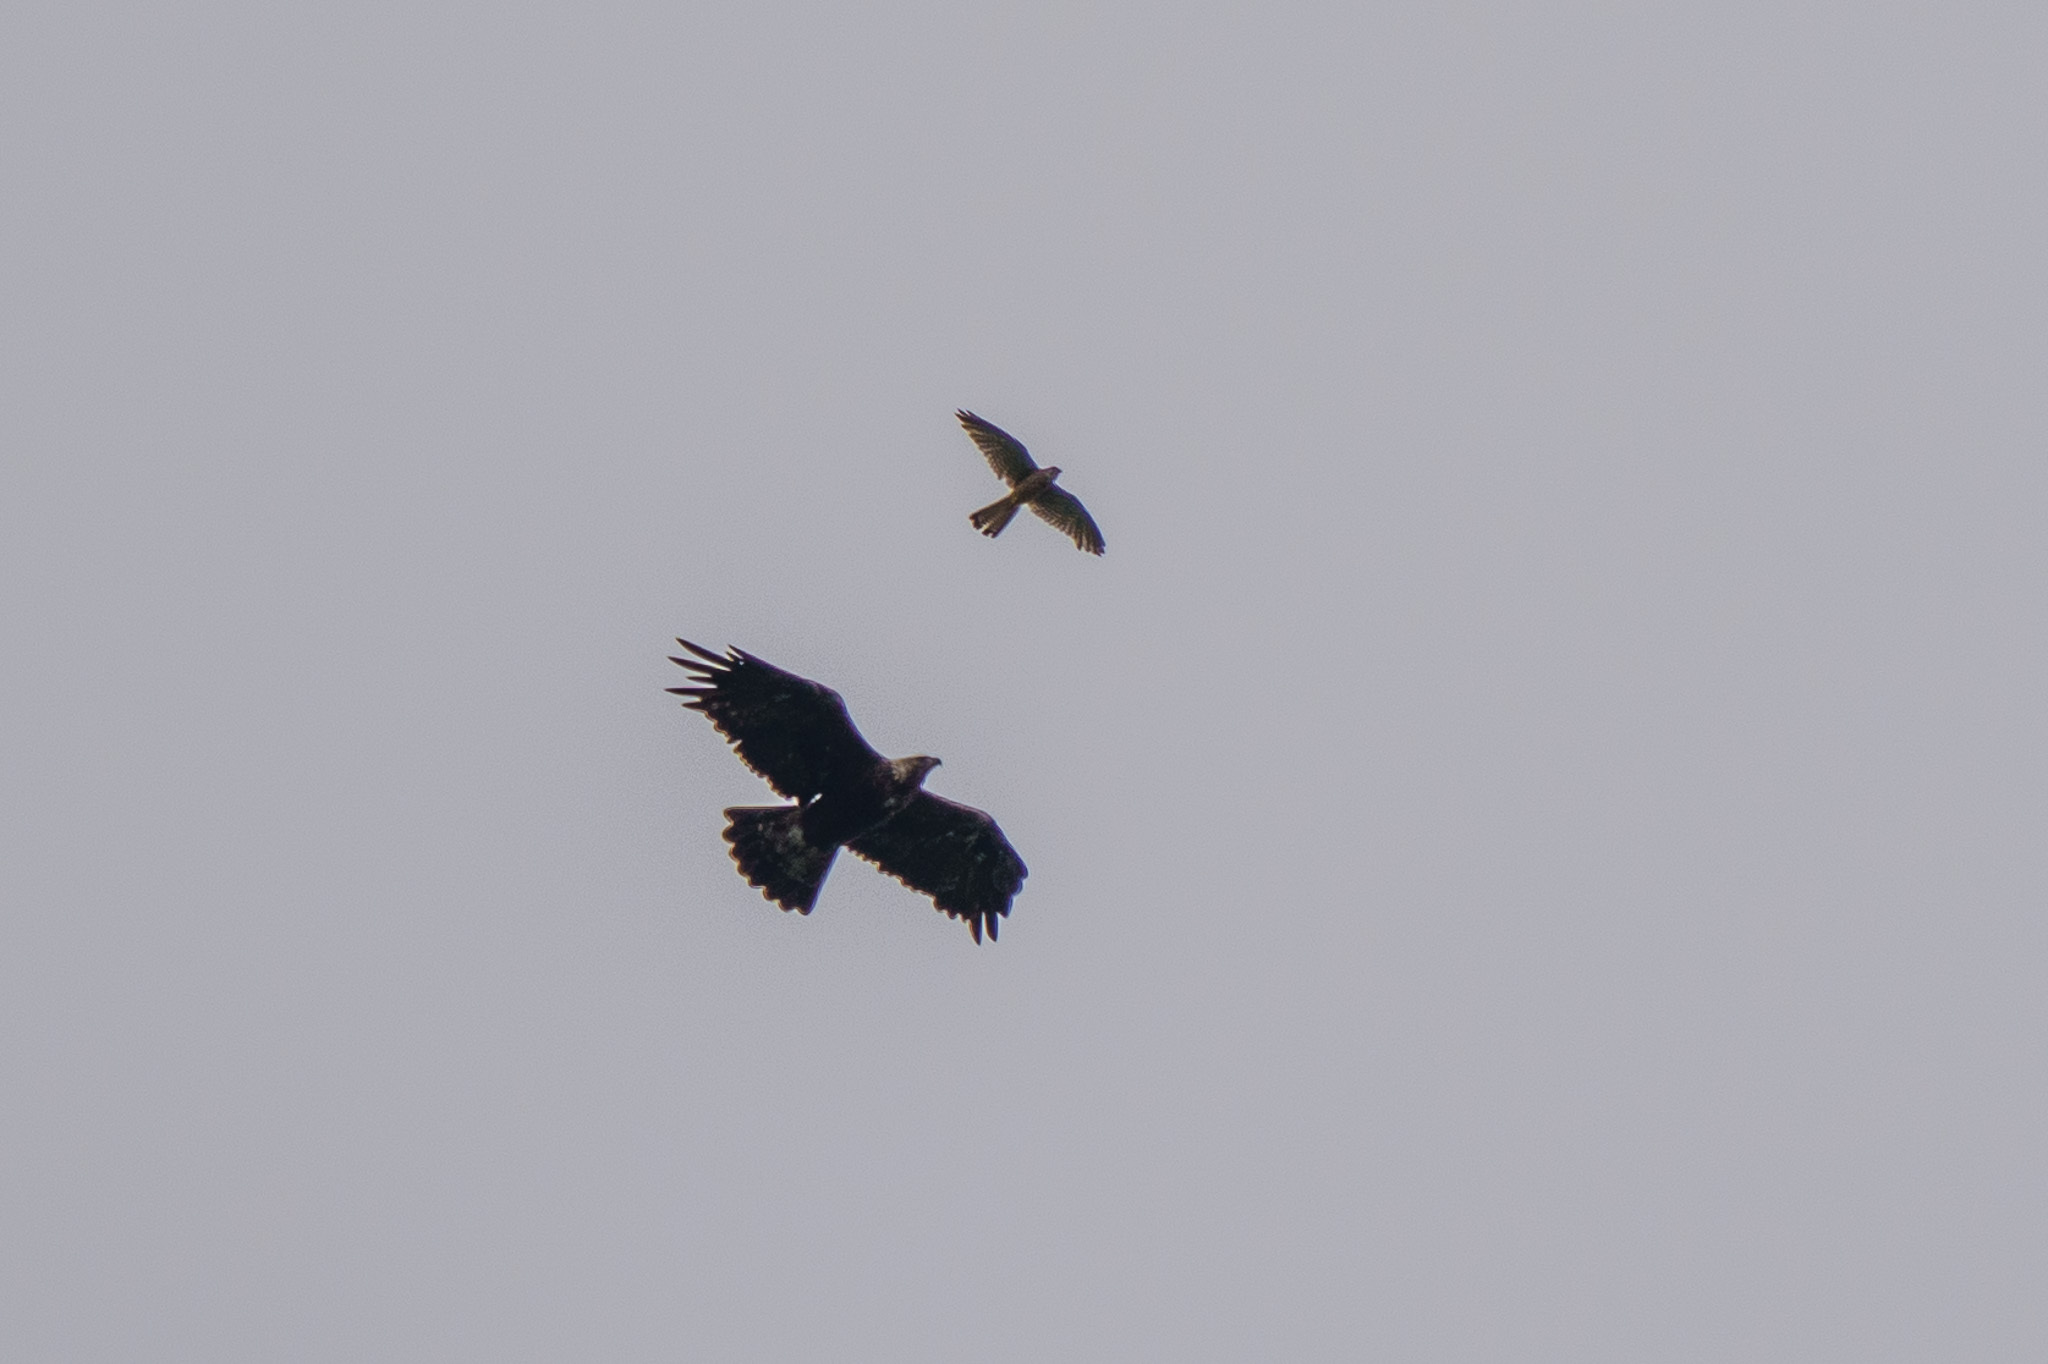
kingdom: Animalia
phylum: Chordata
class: Aves
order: Accipitriformes
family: Accipitridae
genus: Aquila
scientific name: Aquila heliaca
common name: Eastern imperial eagle
